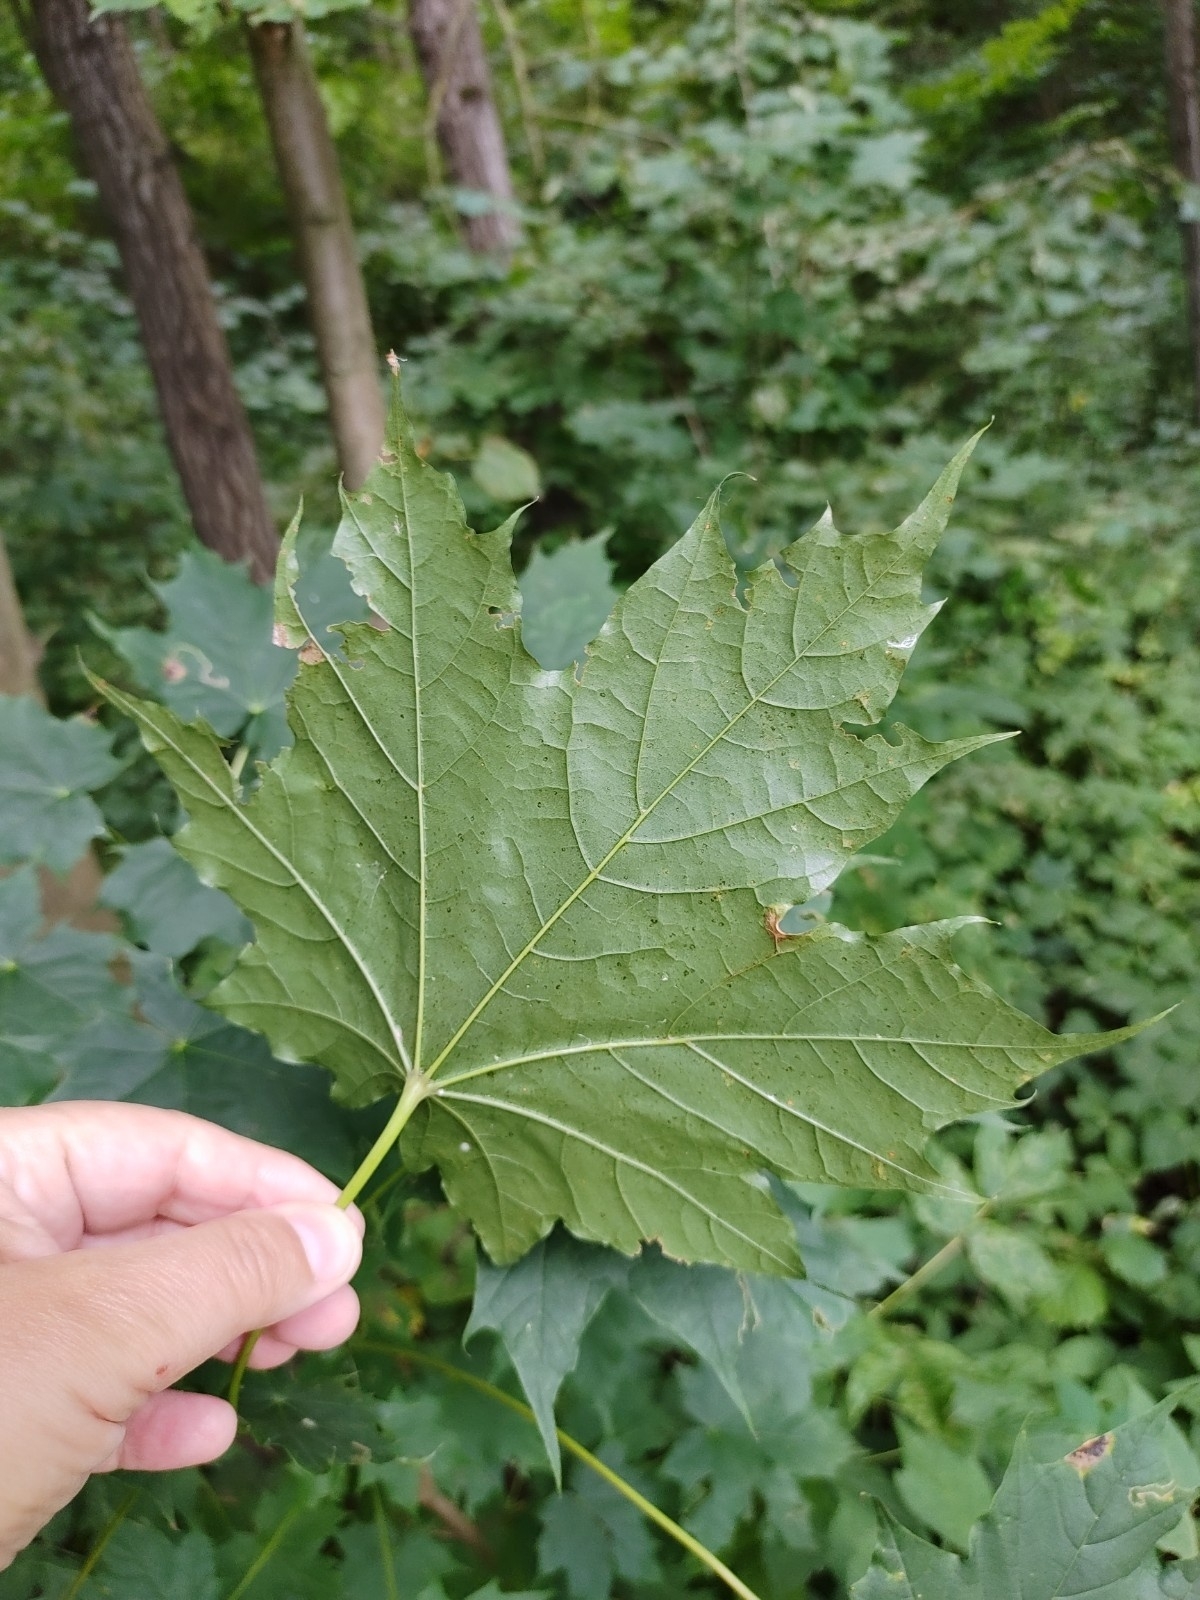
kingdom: Plantae
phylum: Tracheophyta
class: Magnoliopsida
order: Sapindales
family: Sapindaceae
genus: Acer
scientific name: Acer platanoides
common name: Norway maple
